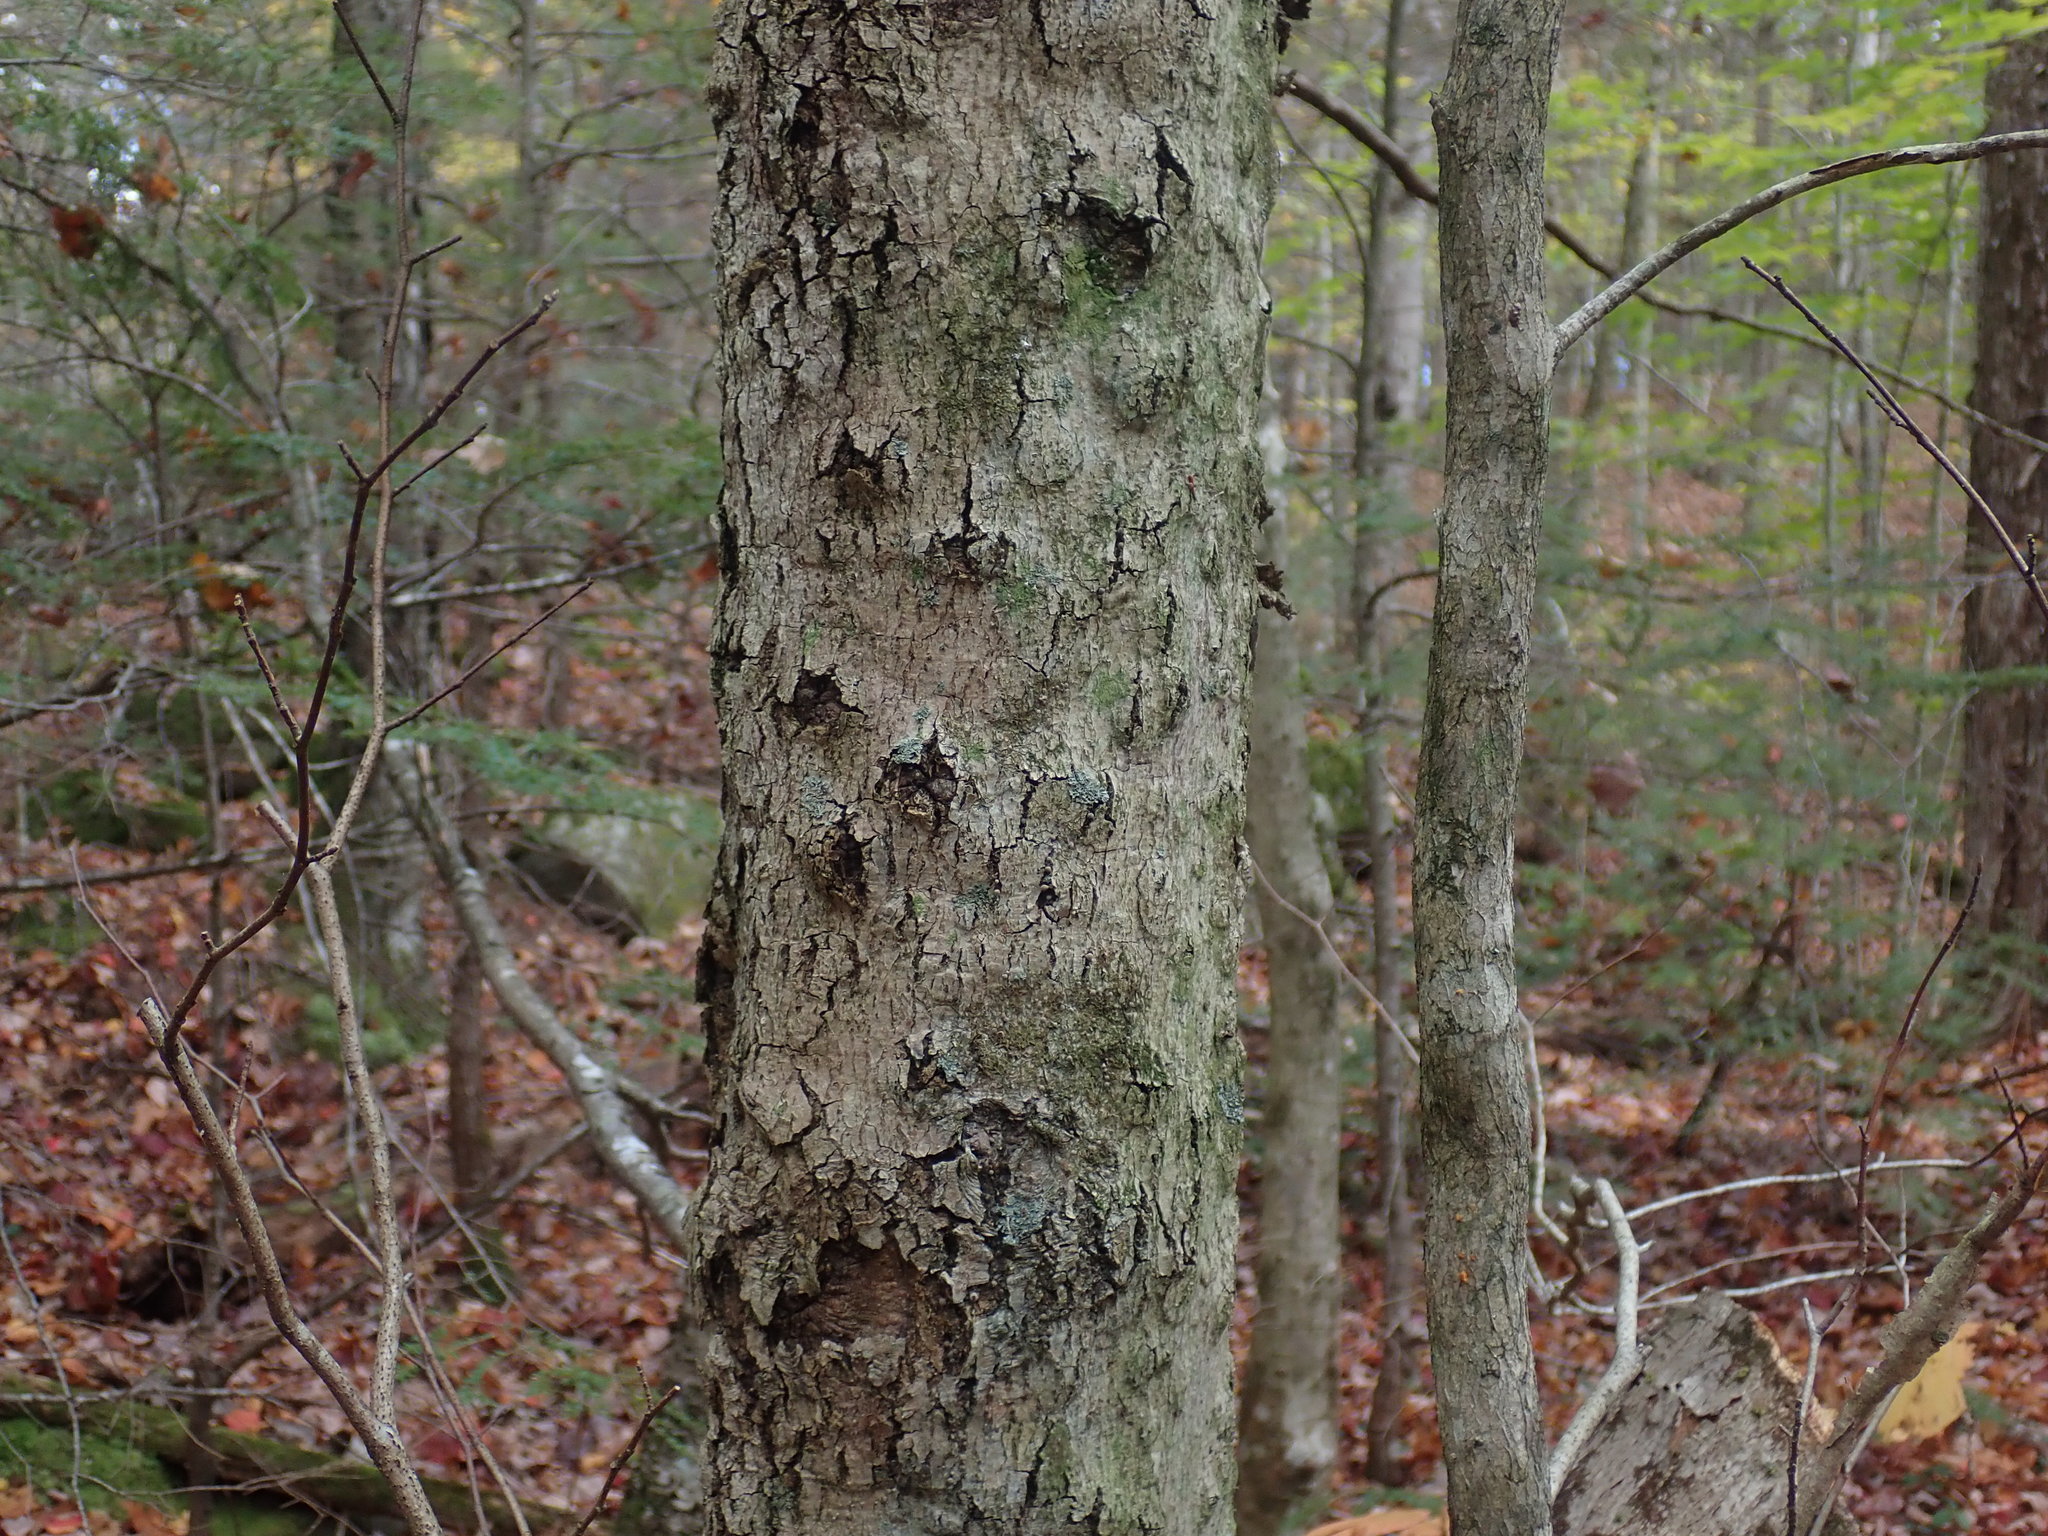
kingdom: Fungi
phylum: Ascomycota
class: Sordariomycetes
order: Hypocreales
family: Nectriaceae
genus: Neonectria
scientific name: Neonectria faginata
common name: Beech bark canker
